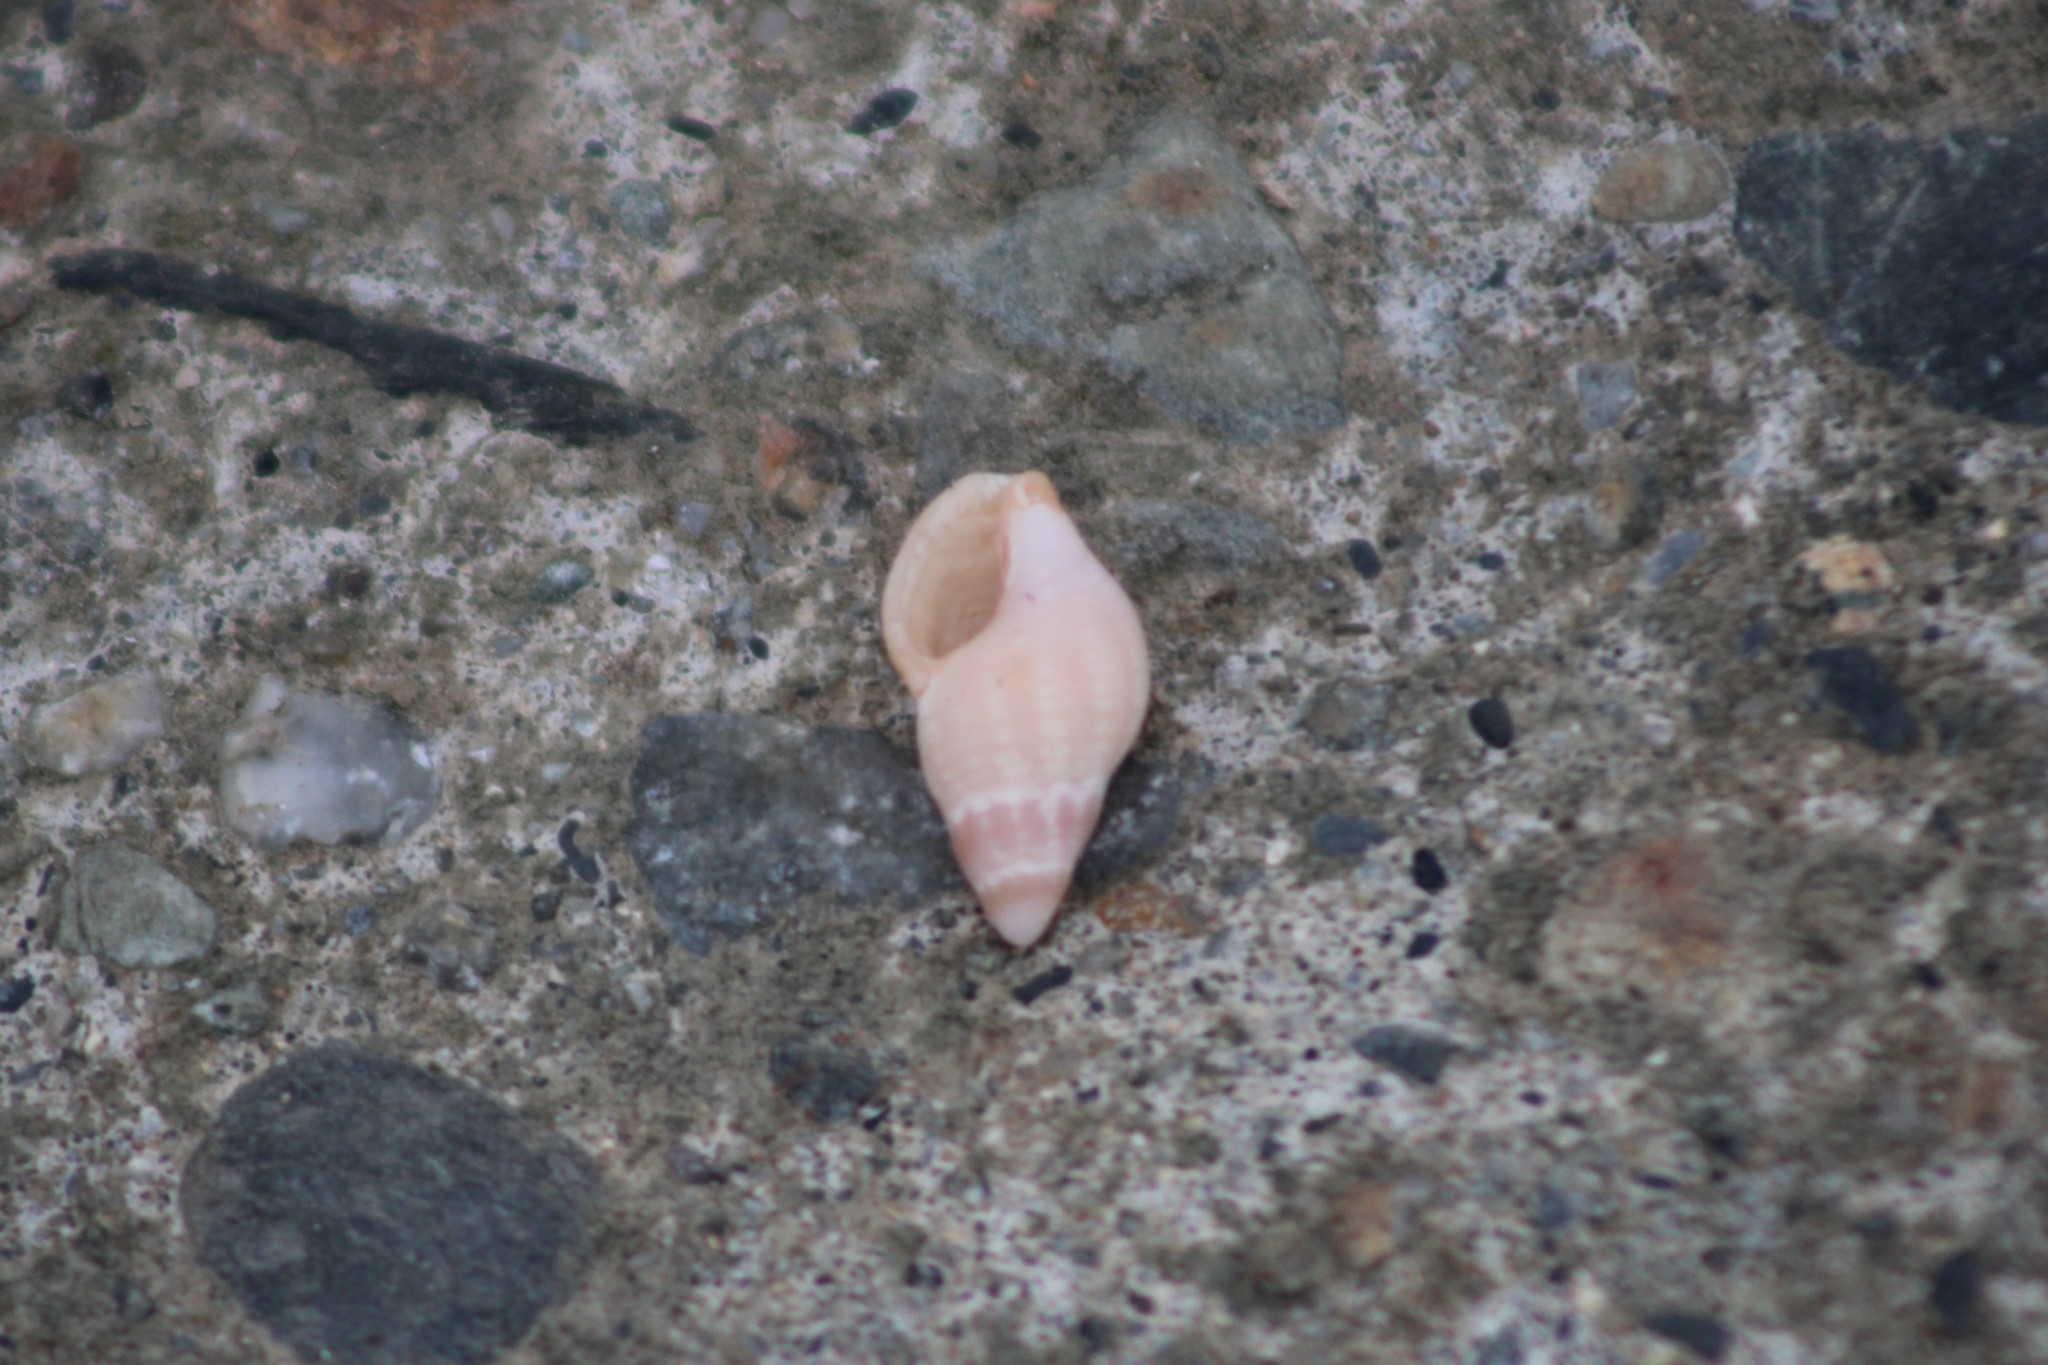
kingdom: Animalia
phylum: Mollusca
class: Gastropoda
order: Neogastropoda
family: Muricidae
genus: Urosalpinx
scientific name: Urosalpinx cinerea
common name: American sting winkle
